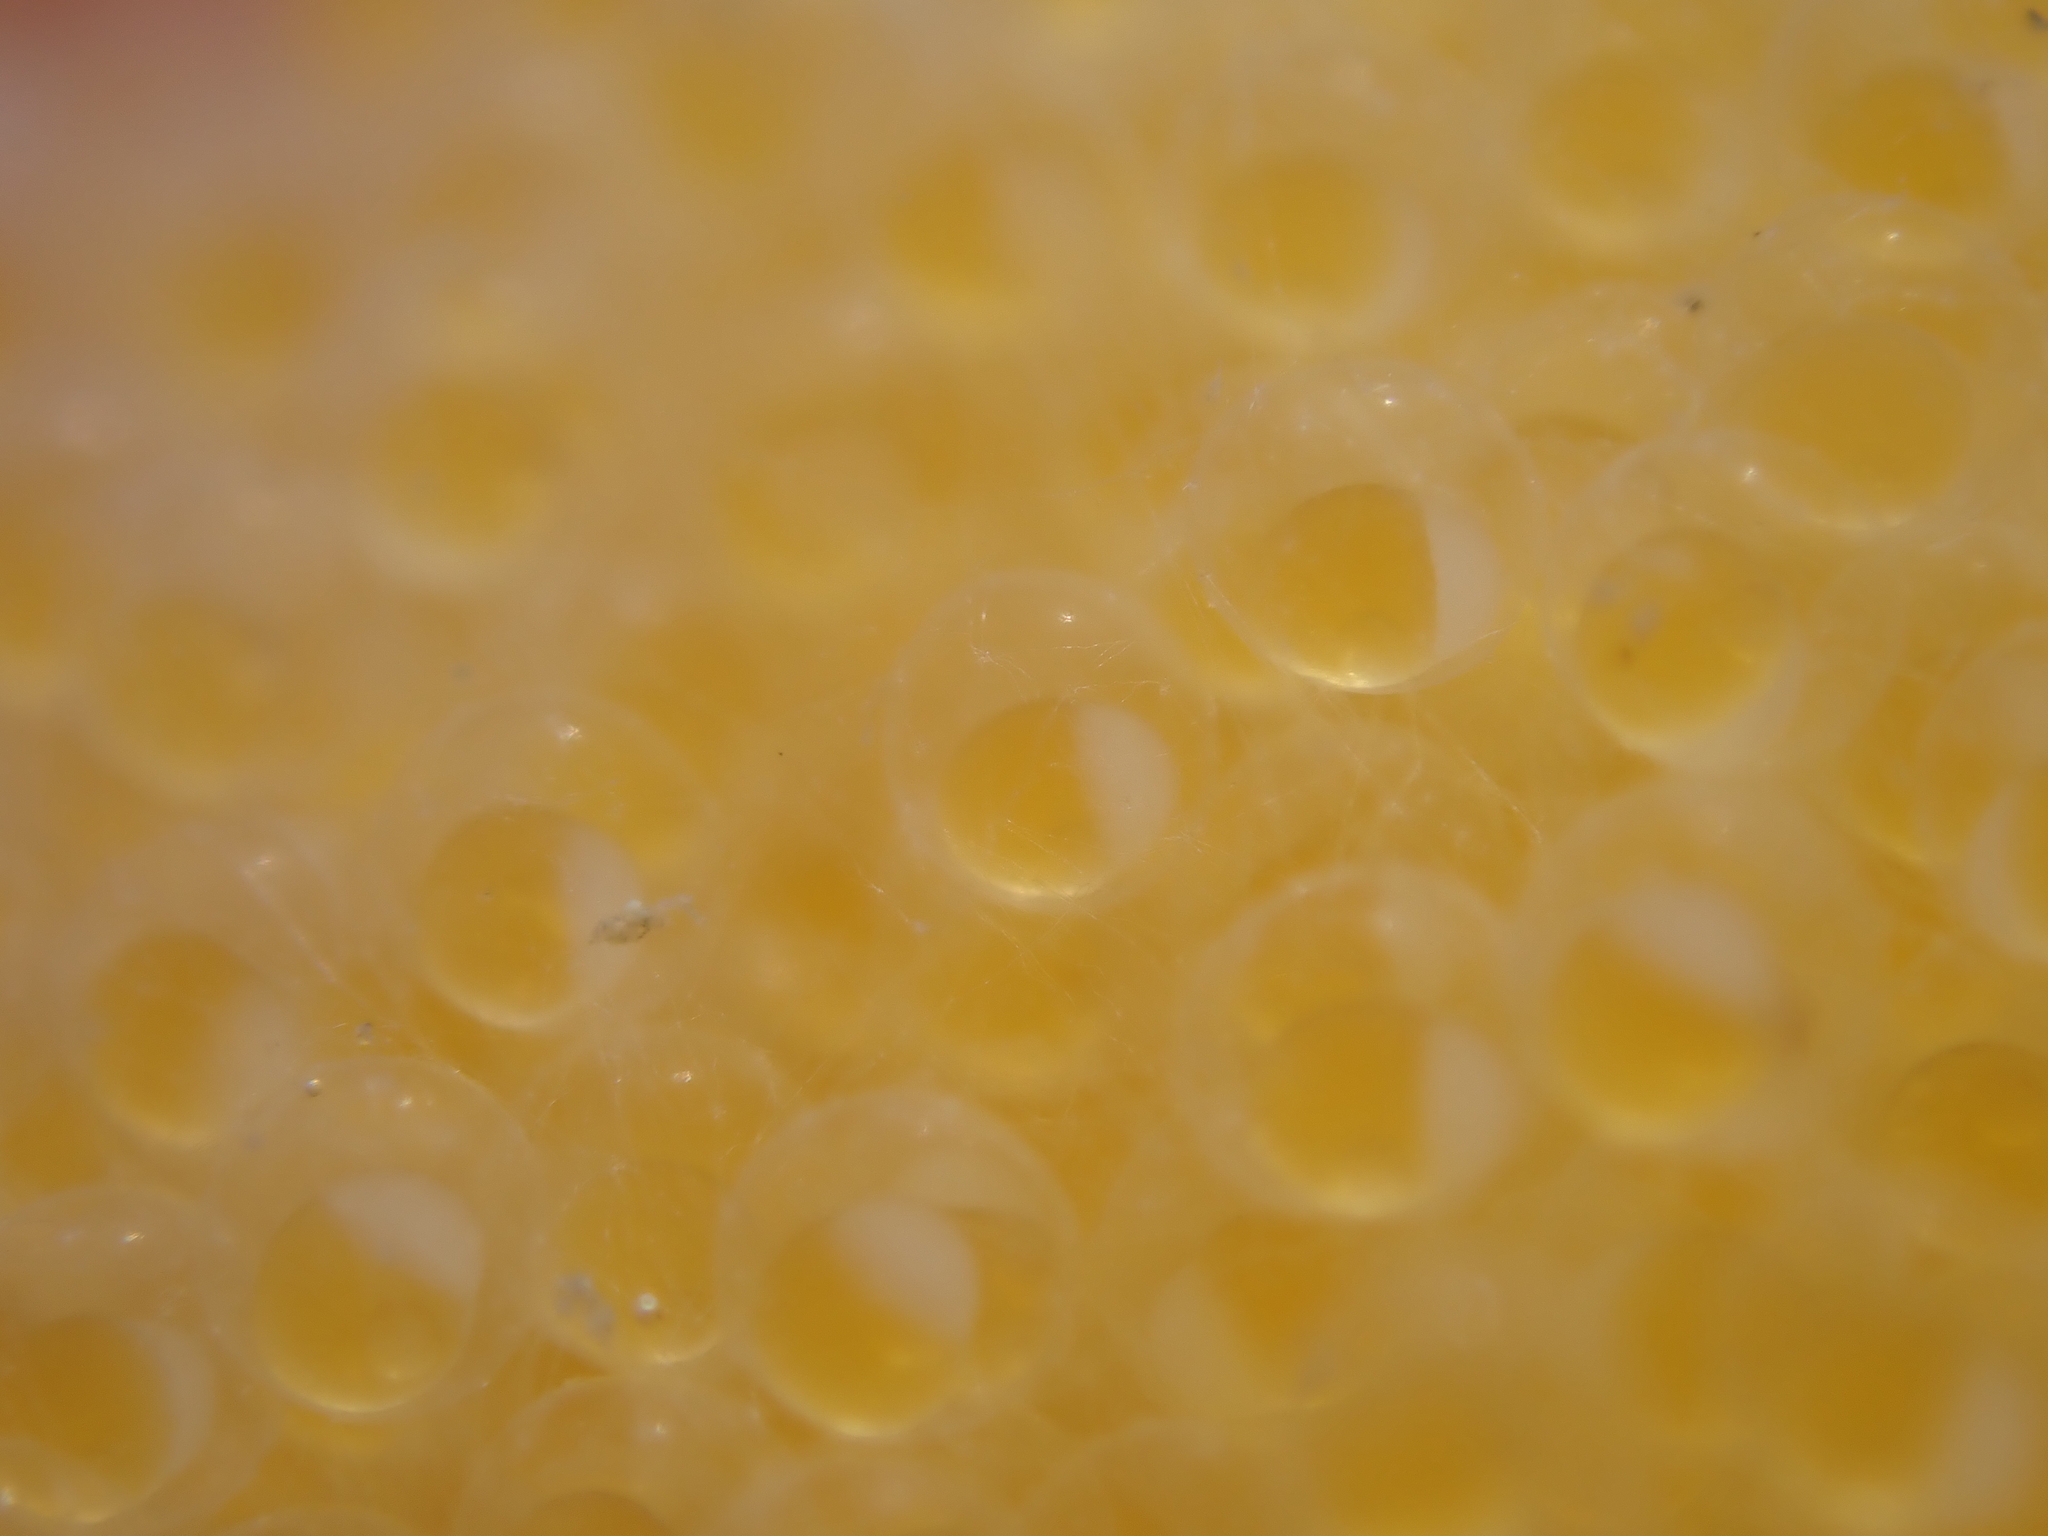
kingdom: Animalia
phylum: Chordata
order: Perciformes
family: Plesiopidae
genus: Acanthoclinus
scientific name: Acanthoclinus fuscus
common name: Olive rockfish
